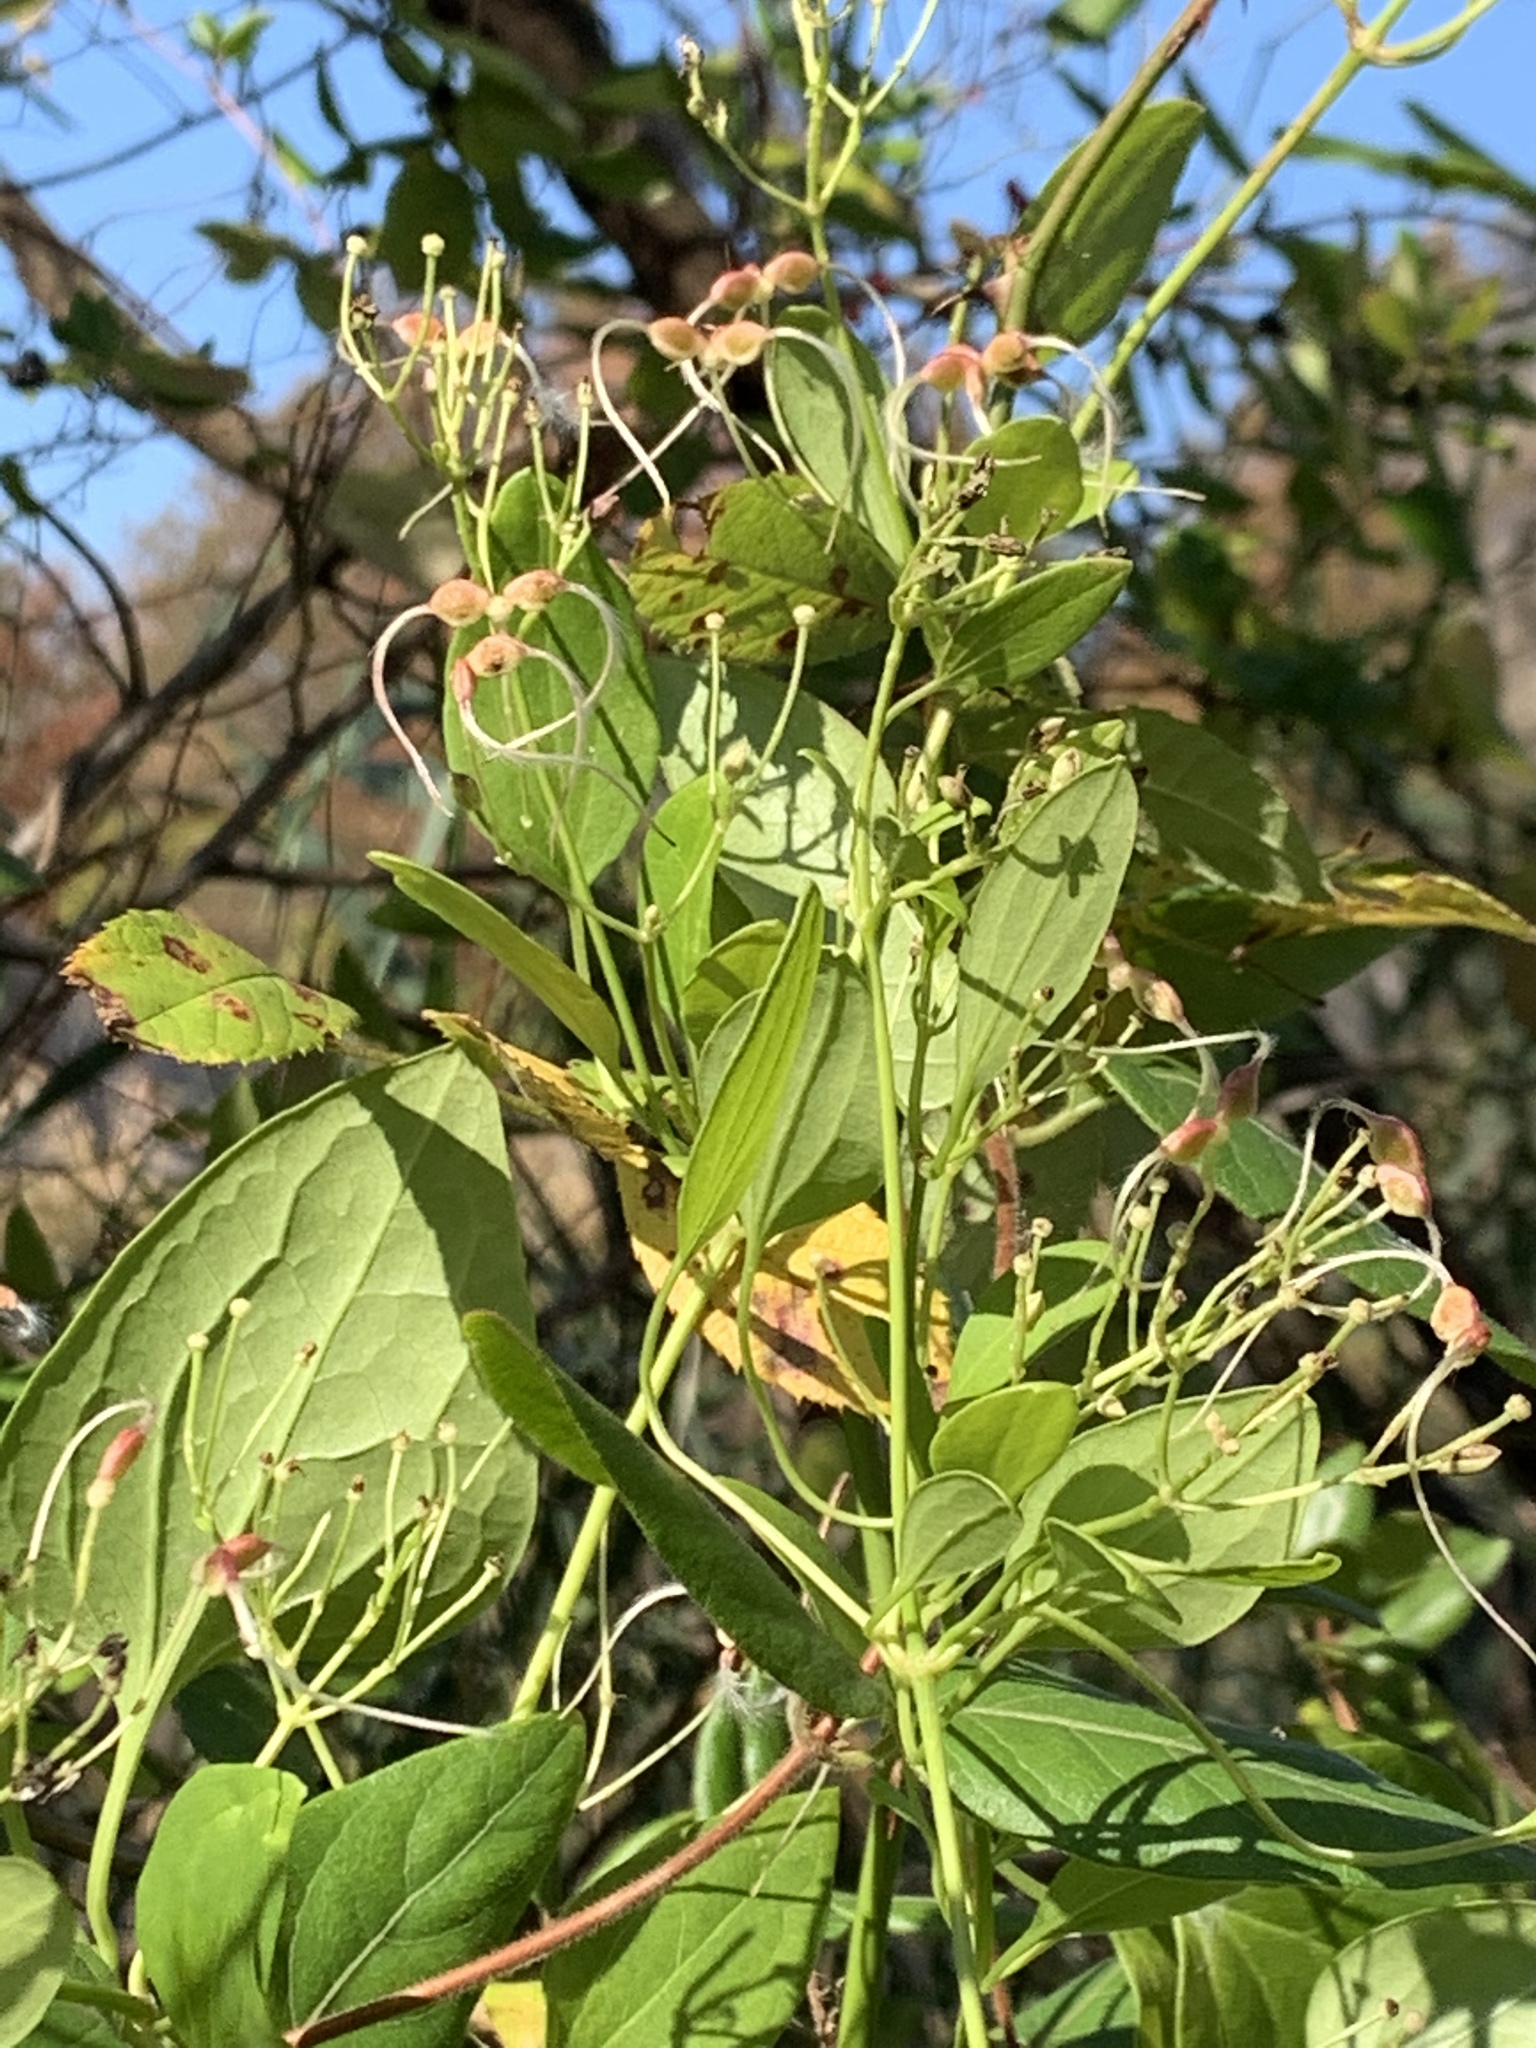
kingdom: Plantae
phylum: Tracheophyta
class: Magnoliopsida
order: Ranunculales
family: Ranunculaceae
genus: Clematis
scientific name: Clematis terniflora
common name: Sweet autumn clematis
